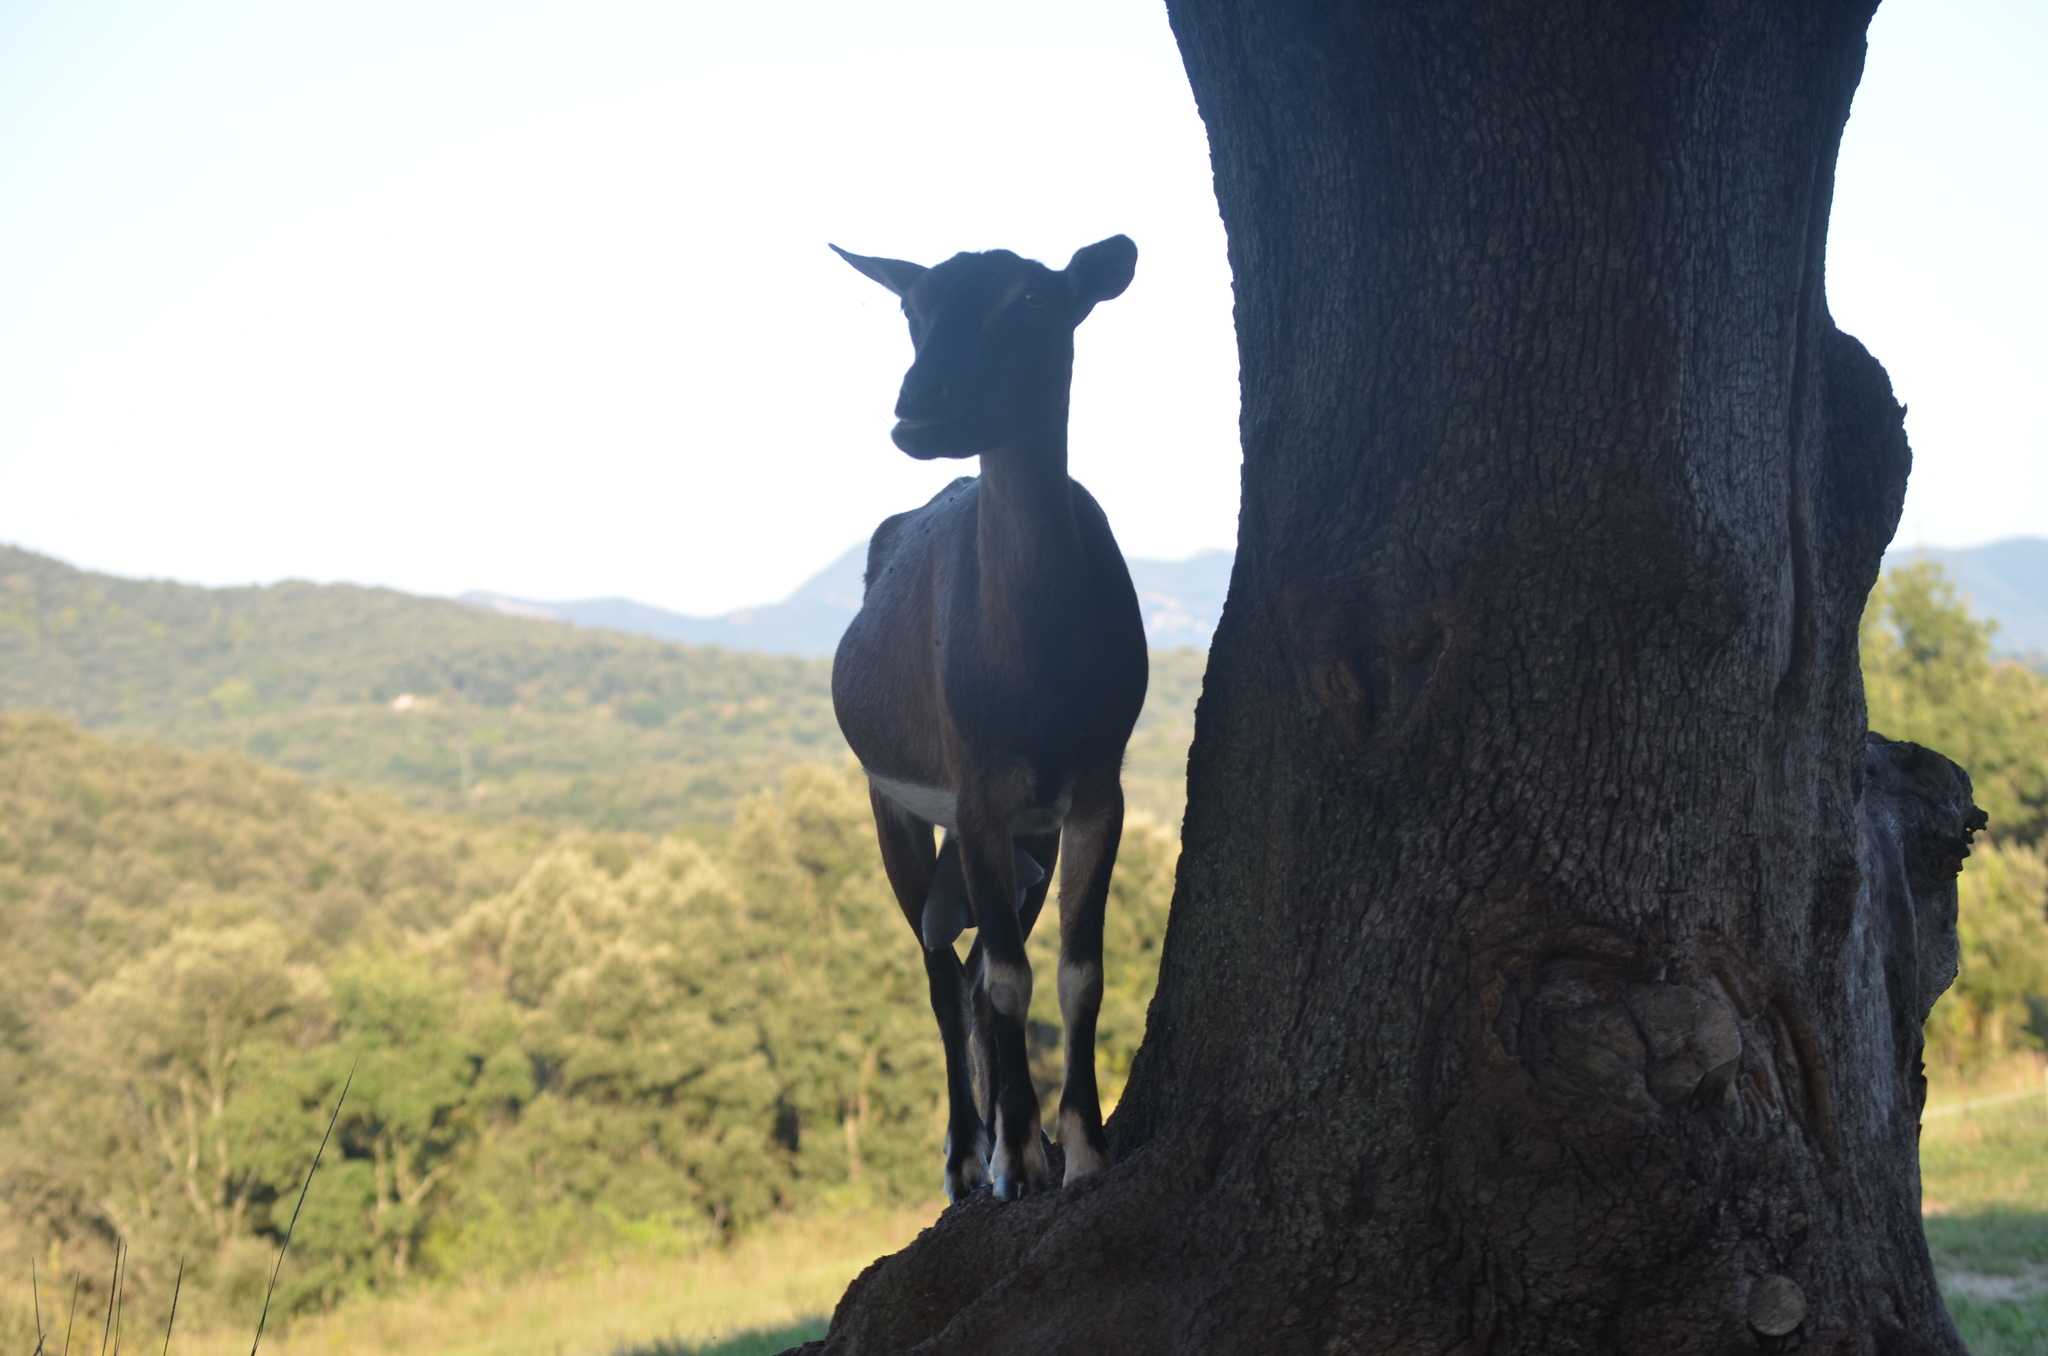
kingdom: Animalia
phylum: Chordata
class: Mammalia
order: Artiodactyla
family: Bovidae
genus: Capra
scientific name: Capra hircus
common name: Domestic goat
